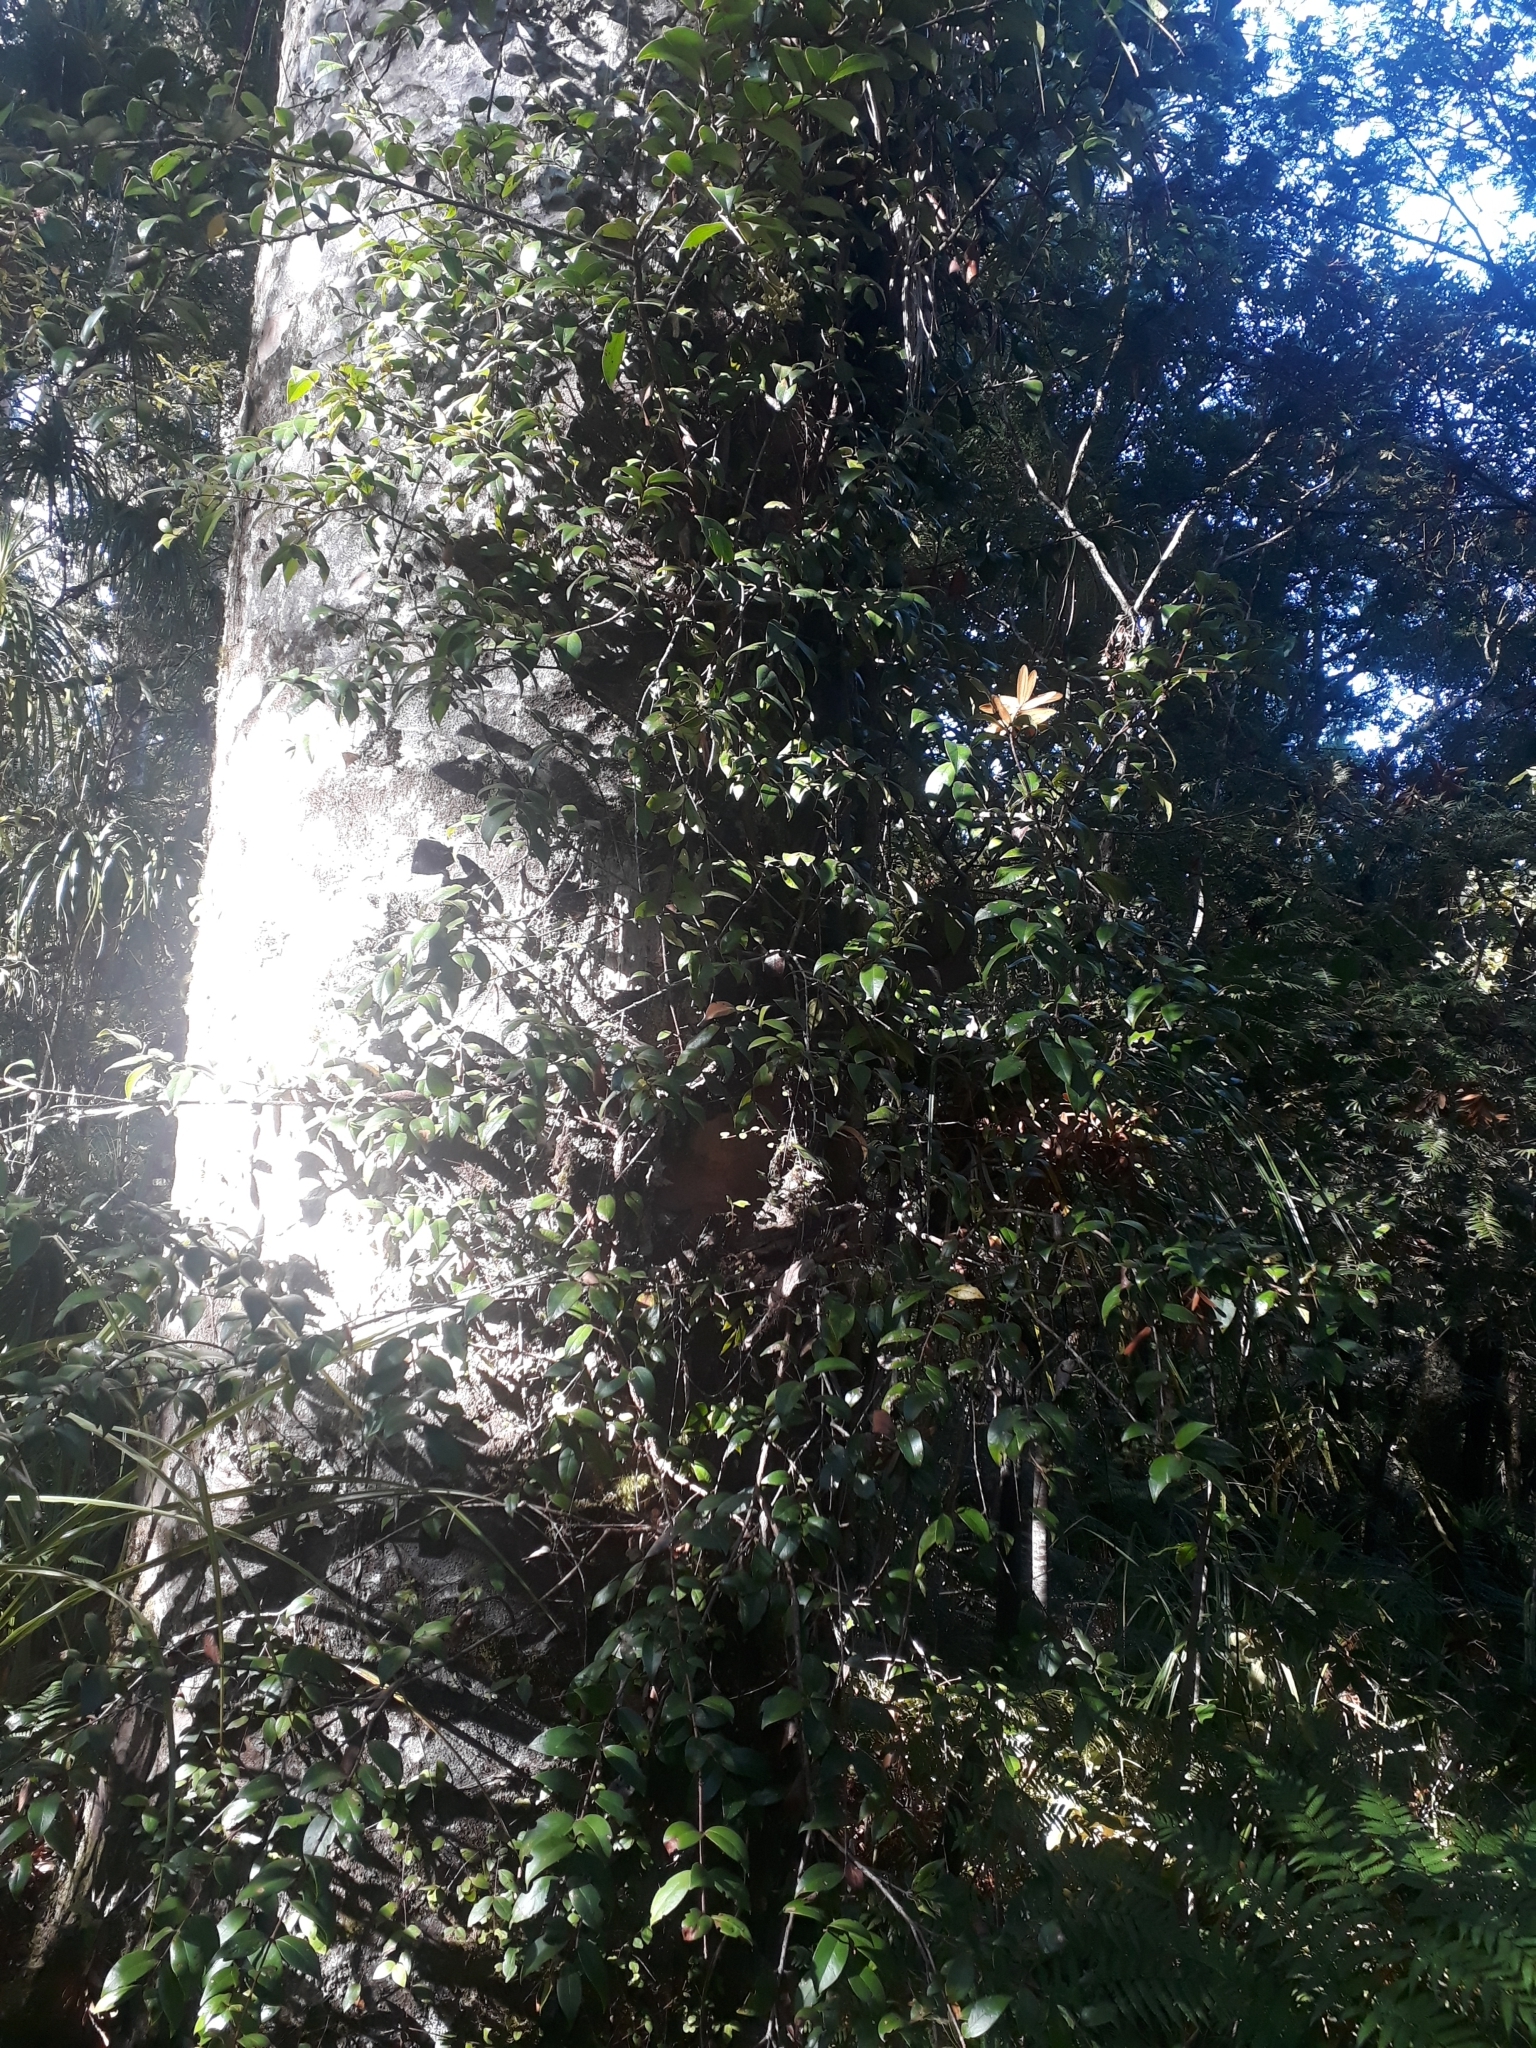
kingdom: Plantae
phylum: Tracheophyta
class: Magnoliopsida
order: Myrtales
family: Myrtaceae
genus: Metrosideros
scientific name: Metrosideros albiflora
